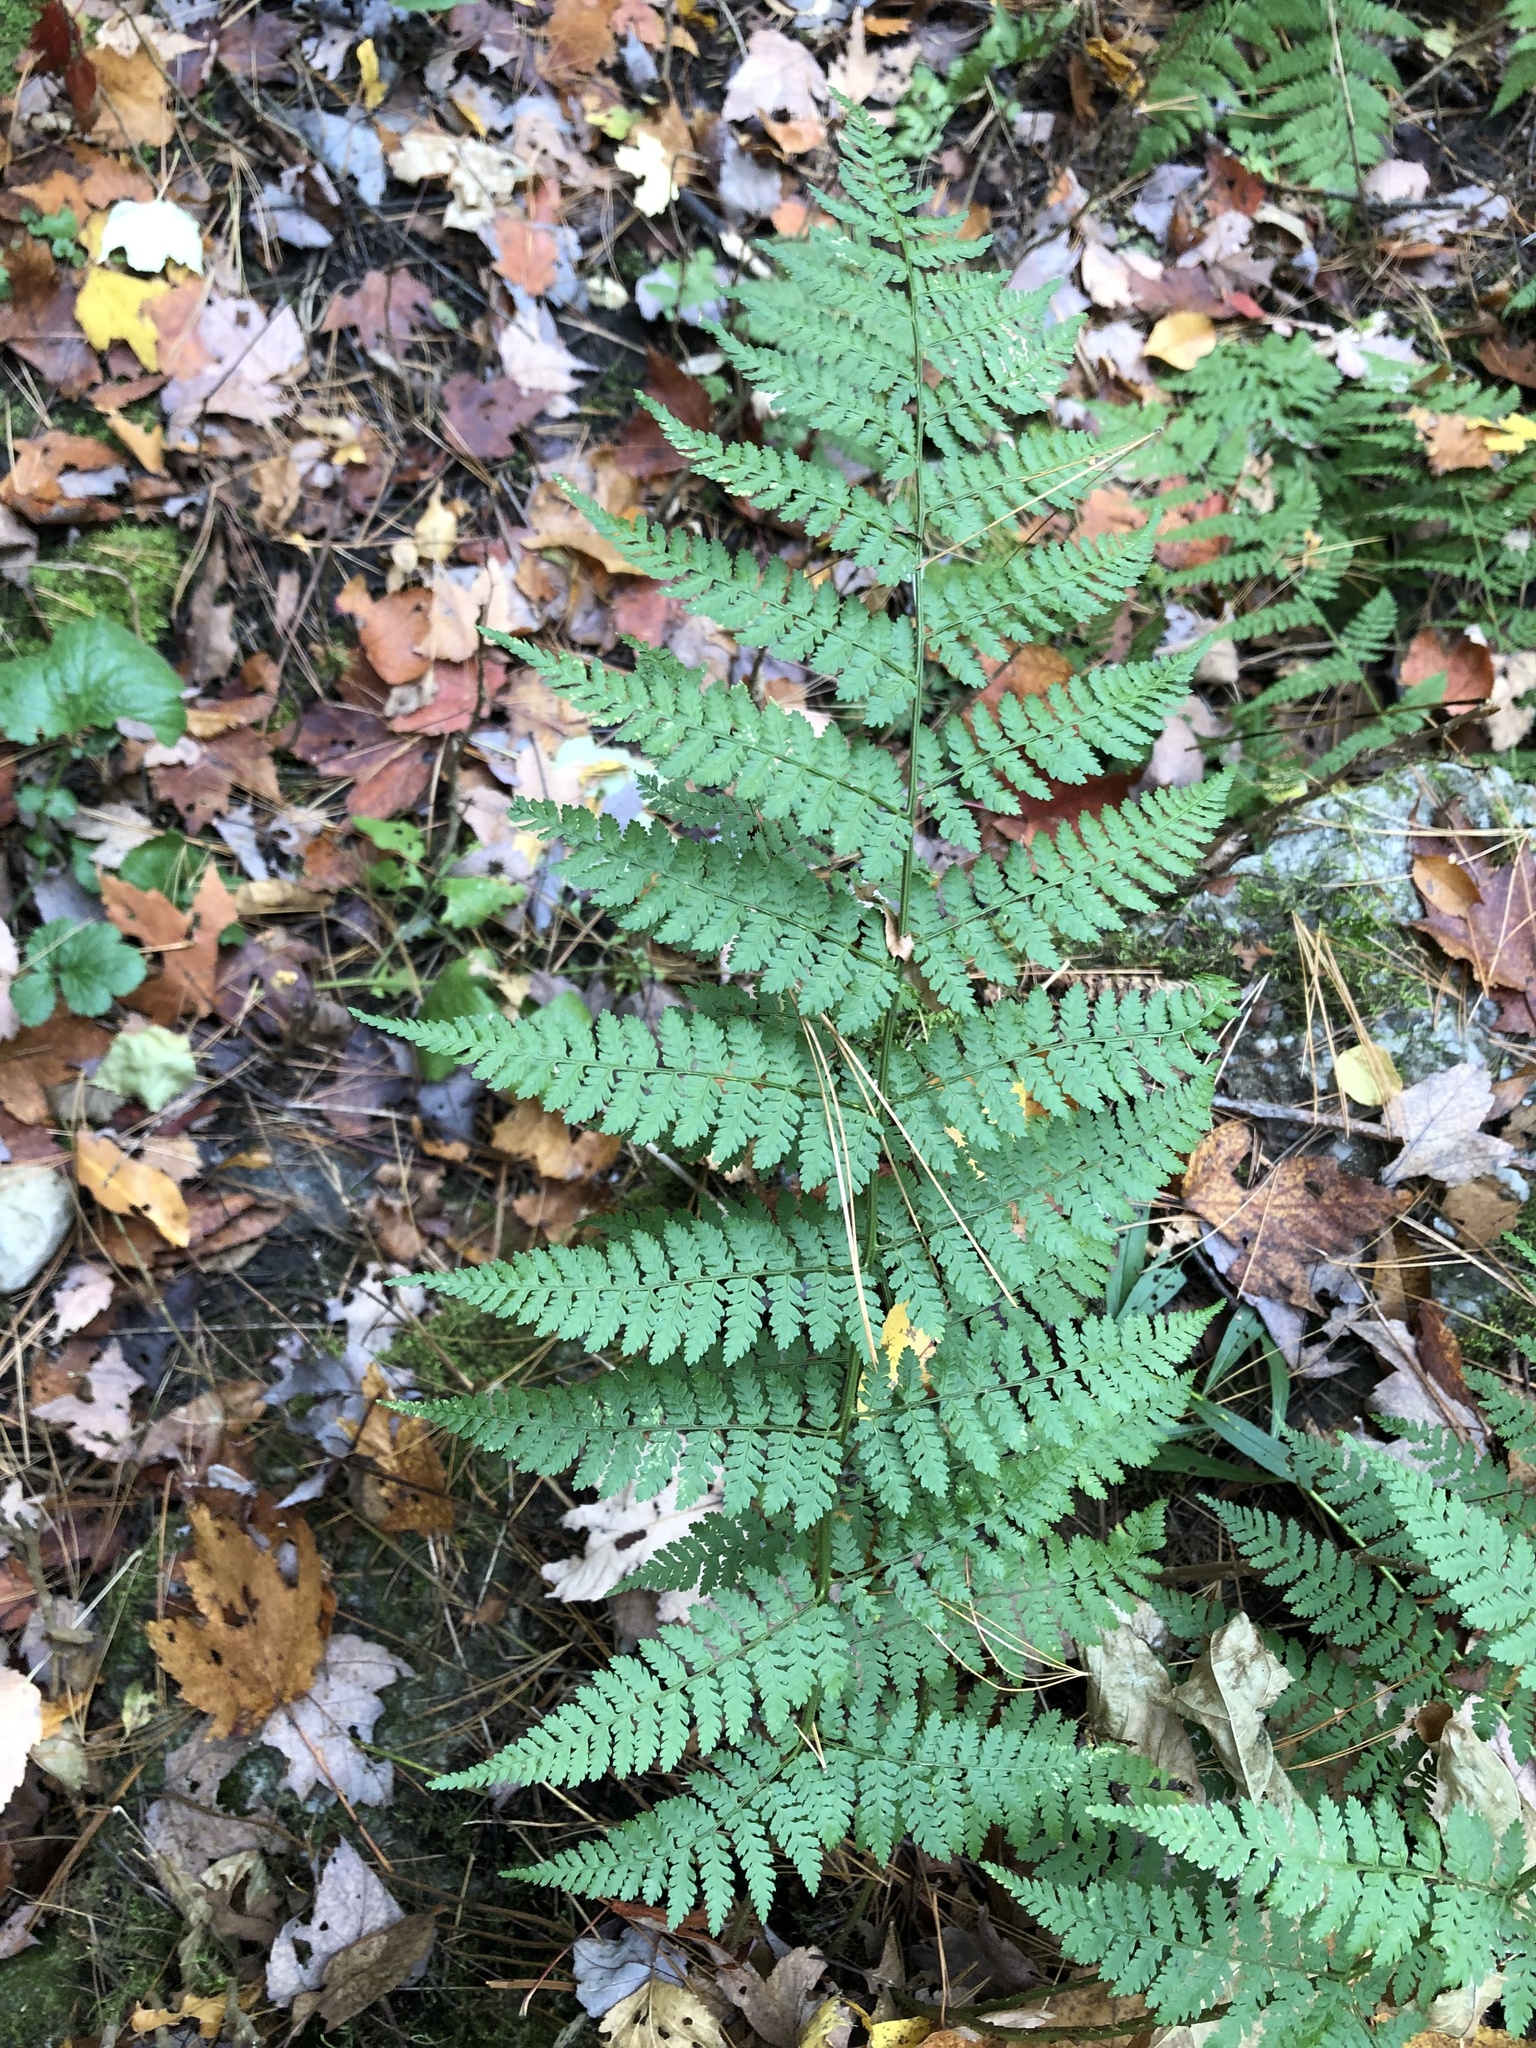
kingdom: Plantae
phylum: Tracheophyta
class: Polypodiopsida
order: Polypodiales
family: Dryopteridaceae
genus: Dryopteris
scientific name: Dryopteris intermedia
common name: Evergreen wood fern
